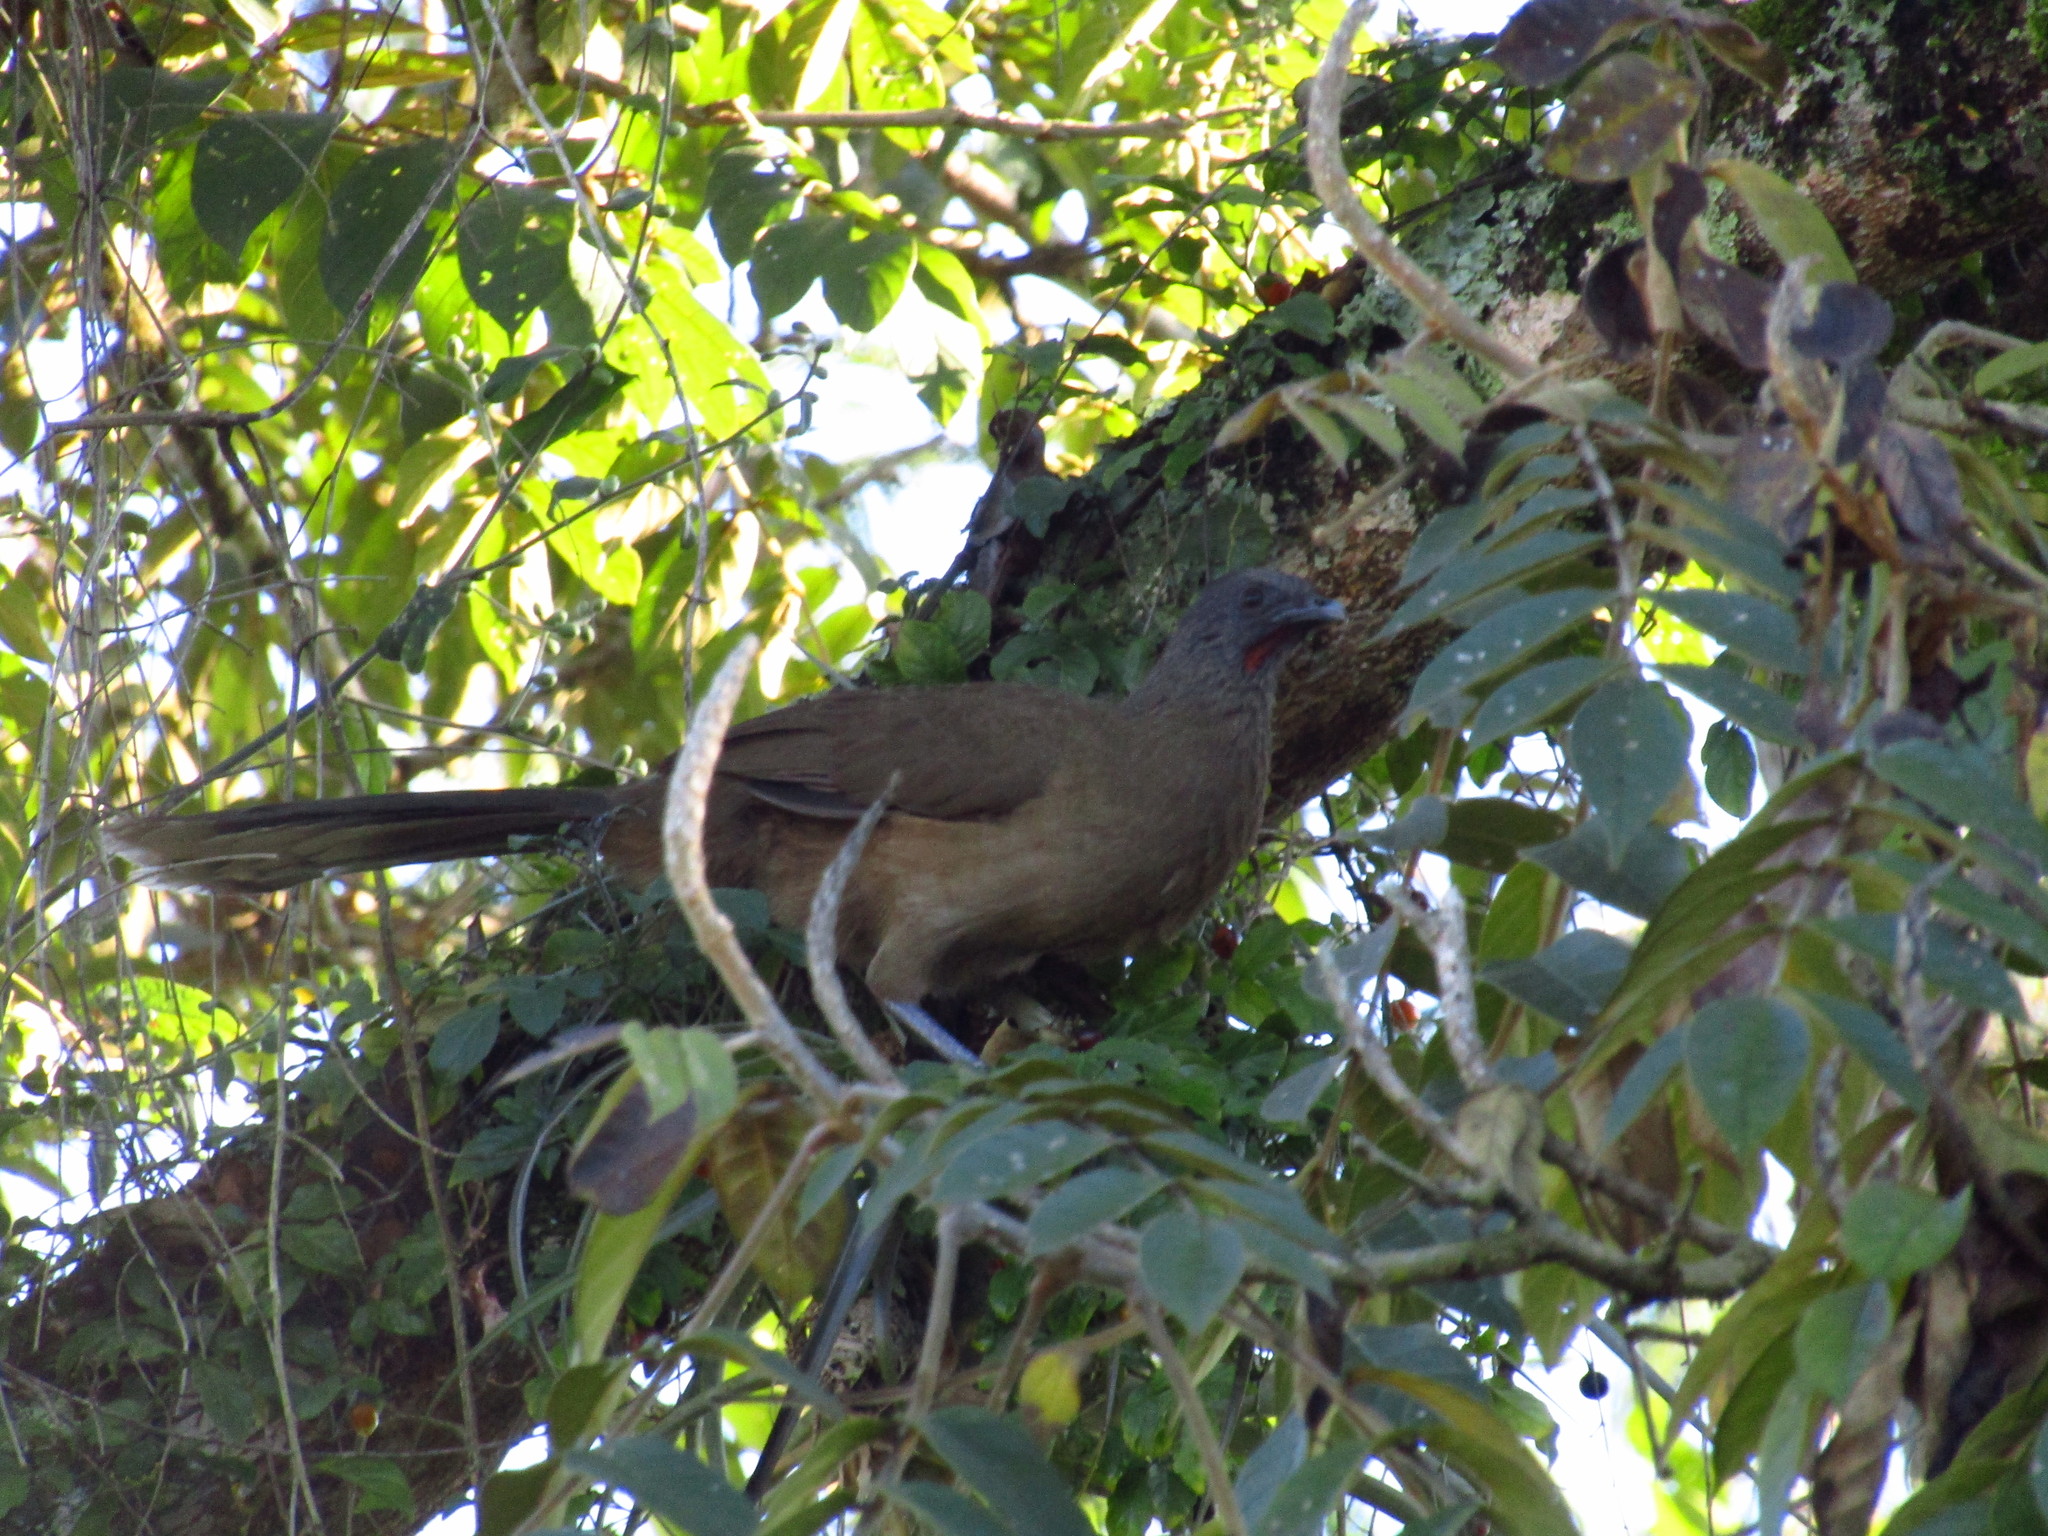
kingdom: Animalia
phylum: Chordata
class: Aves
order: Galliformes
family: Cracidae
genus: Ortalis
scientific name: Ortalis vetula
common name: Plain chachalaca
